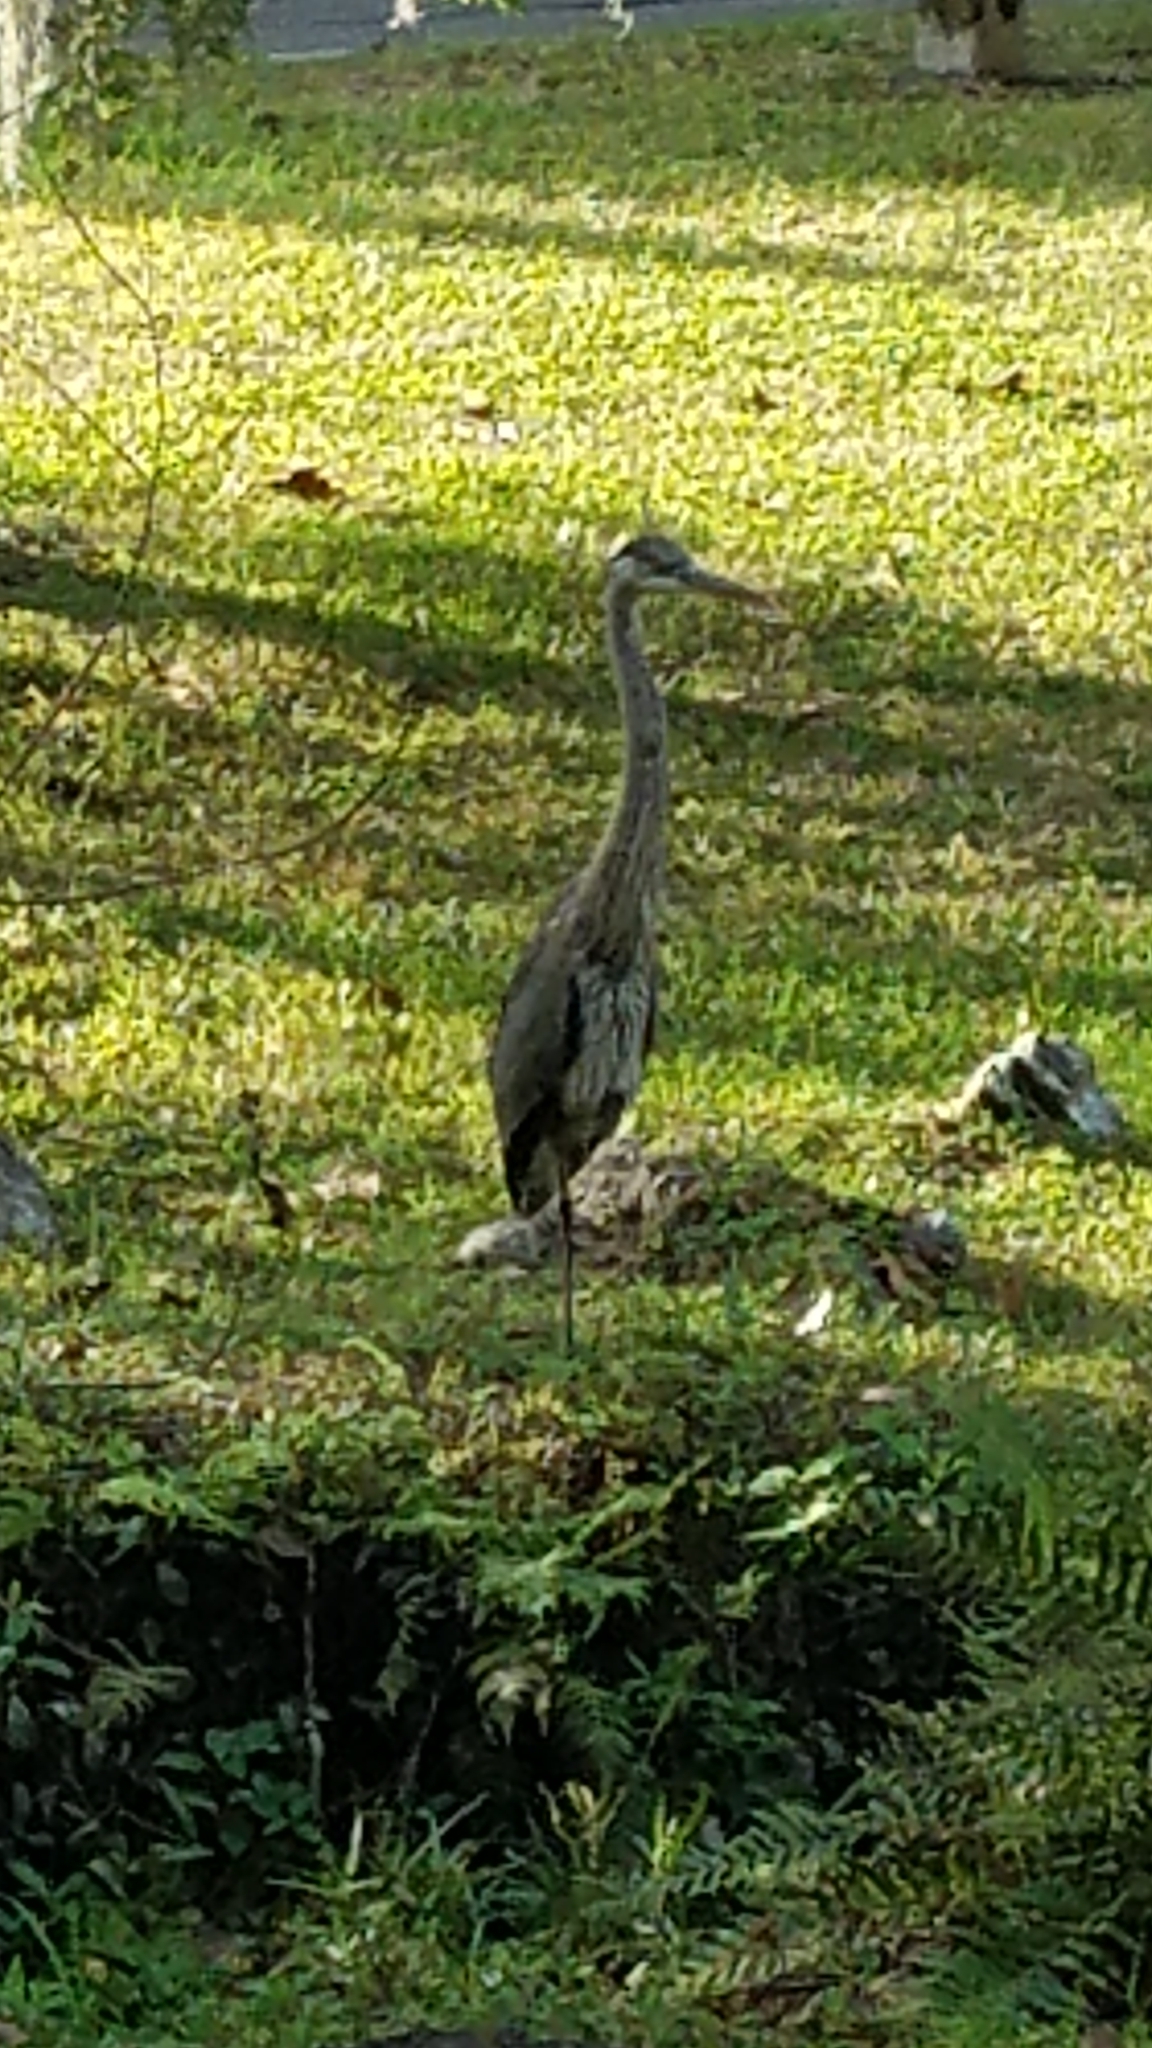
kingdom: Animalia
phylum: Chordata
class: Aves
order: Pelecaniformes
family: Ardeidae
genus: Ardea
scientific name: Ardea herodias
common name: Great blue heron
